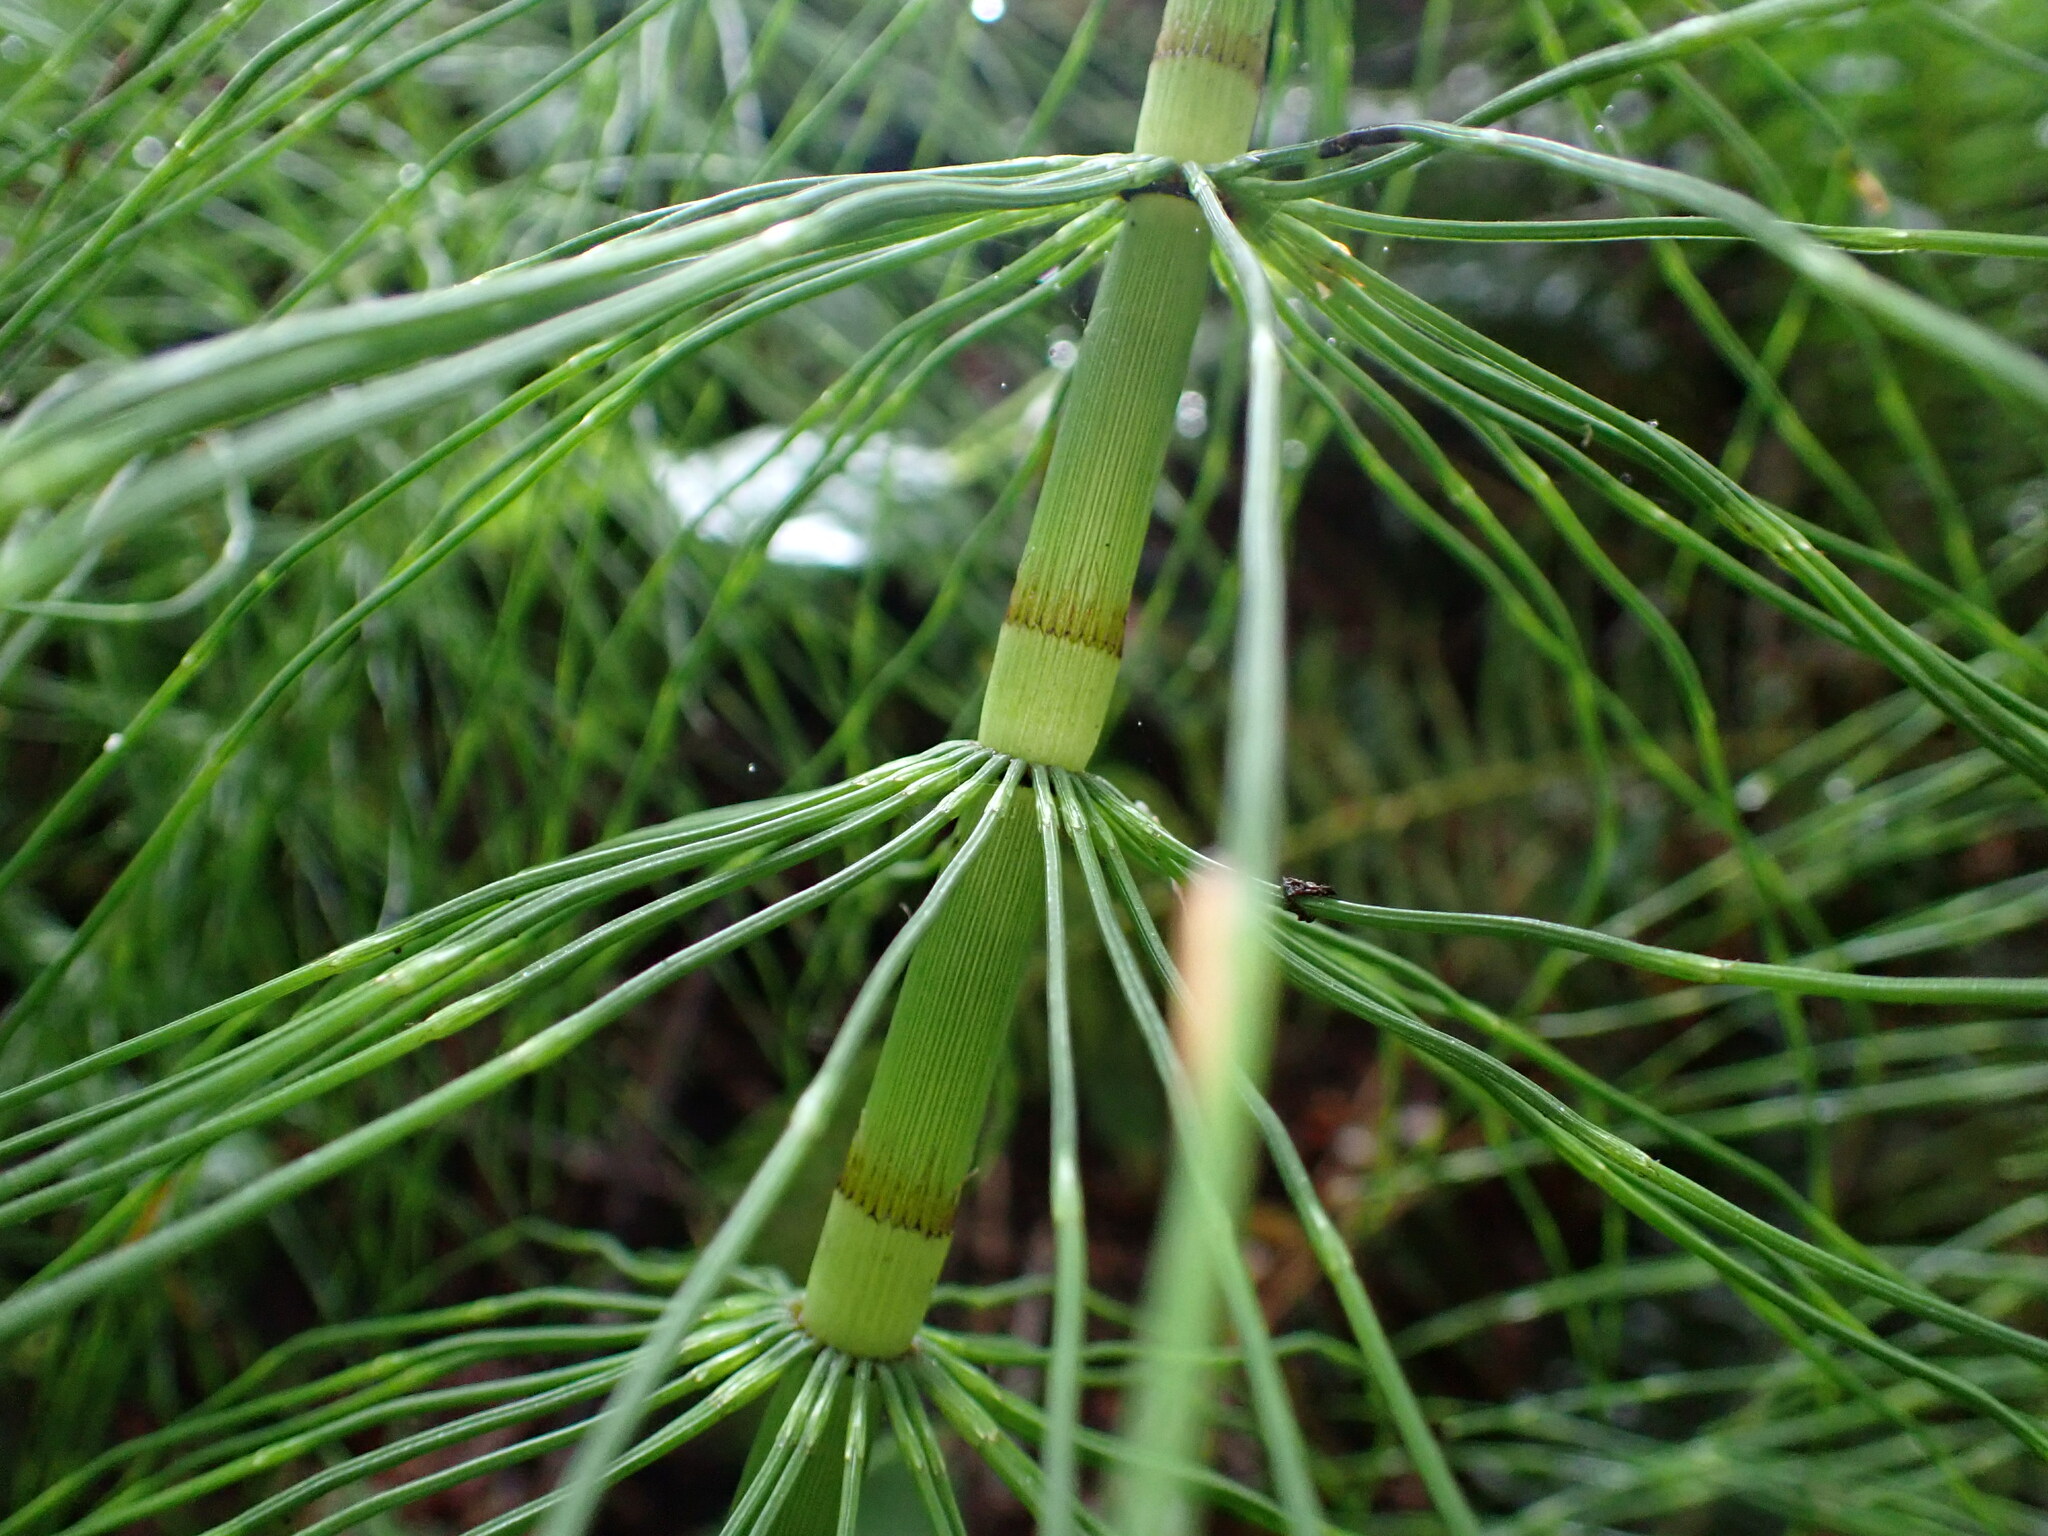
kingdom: Plantae
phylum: Tracheophyta
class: Polypodiopsida
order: Equisetales
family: Equisetaceae
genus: Equisetum
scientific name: Equisetum braunii
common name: Braun's horsetail
